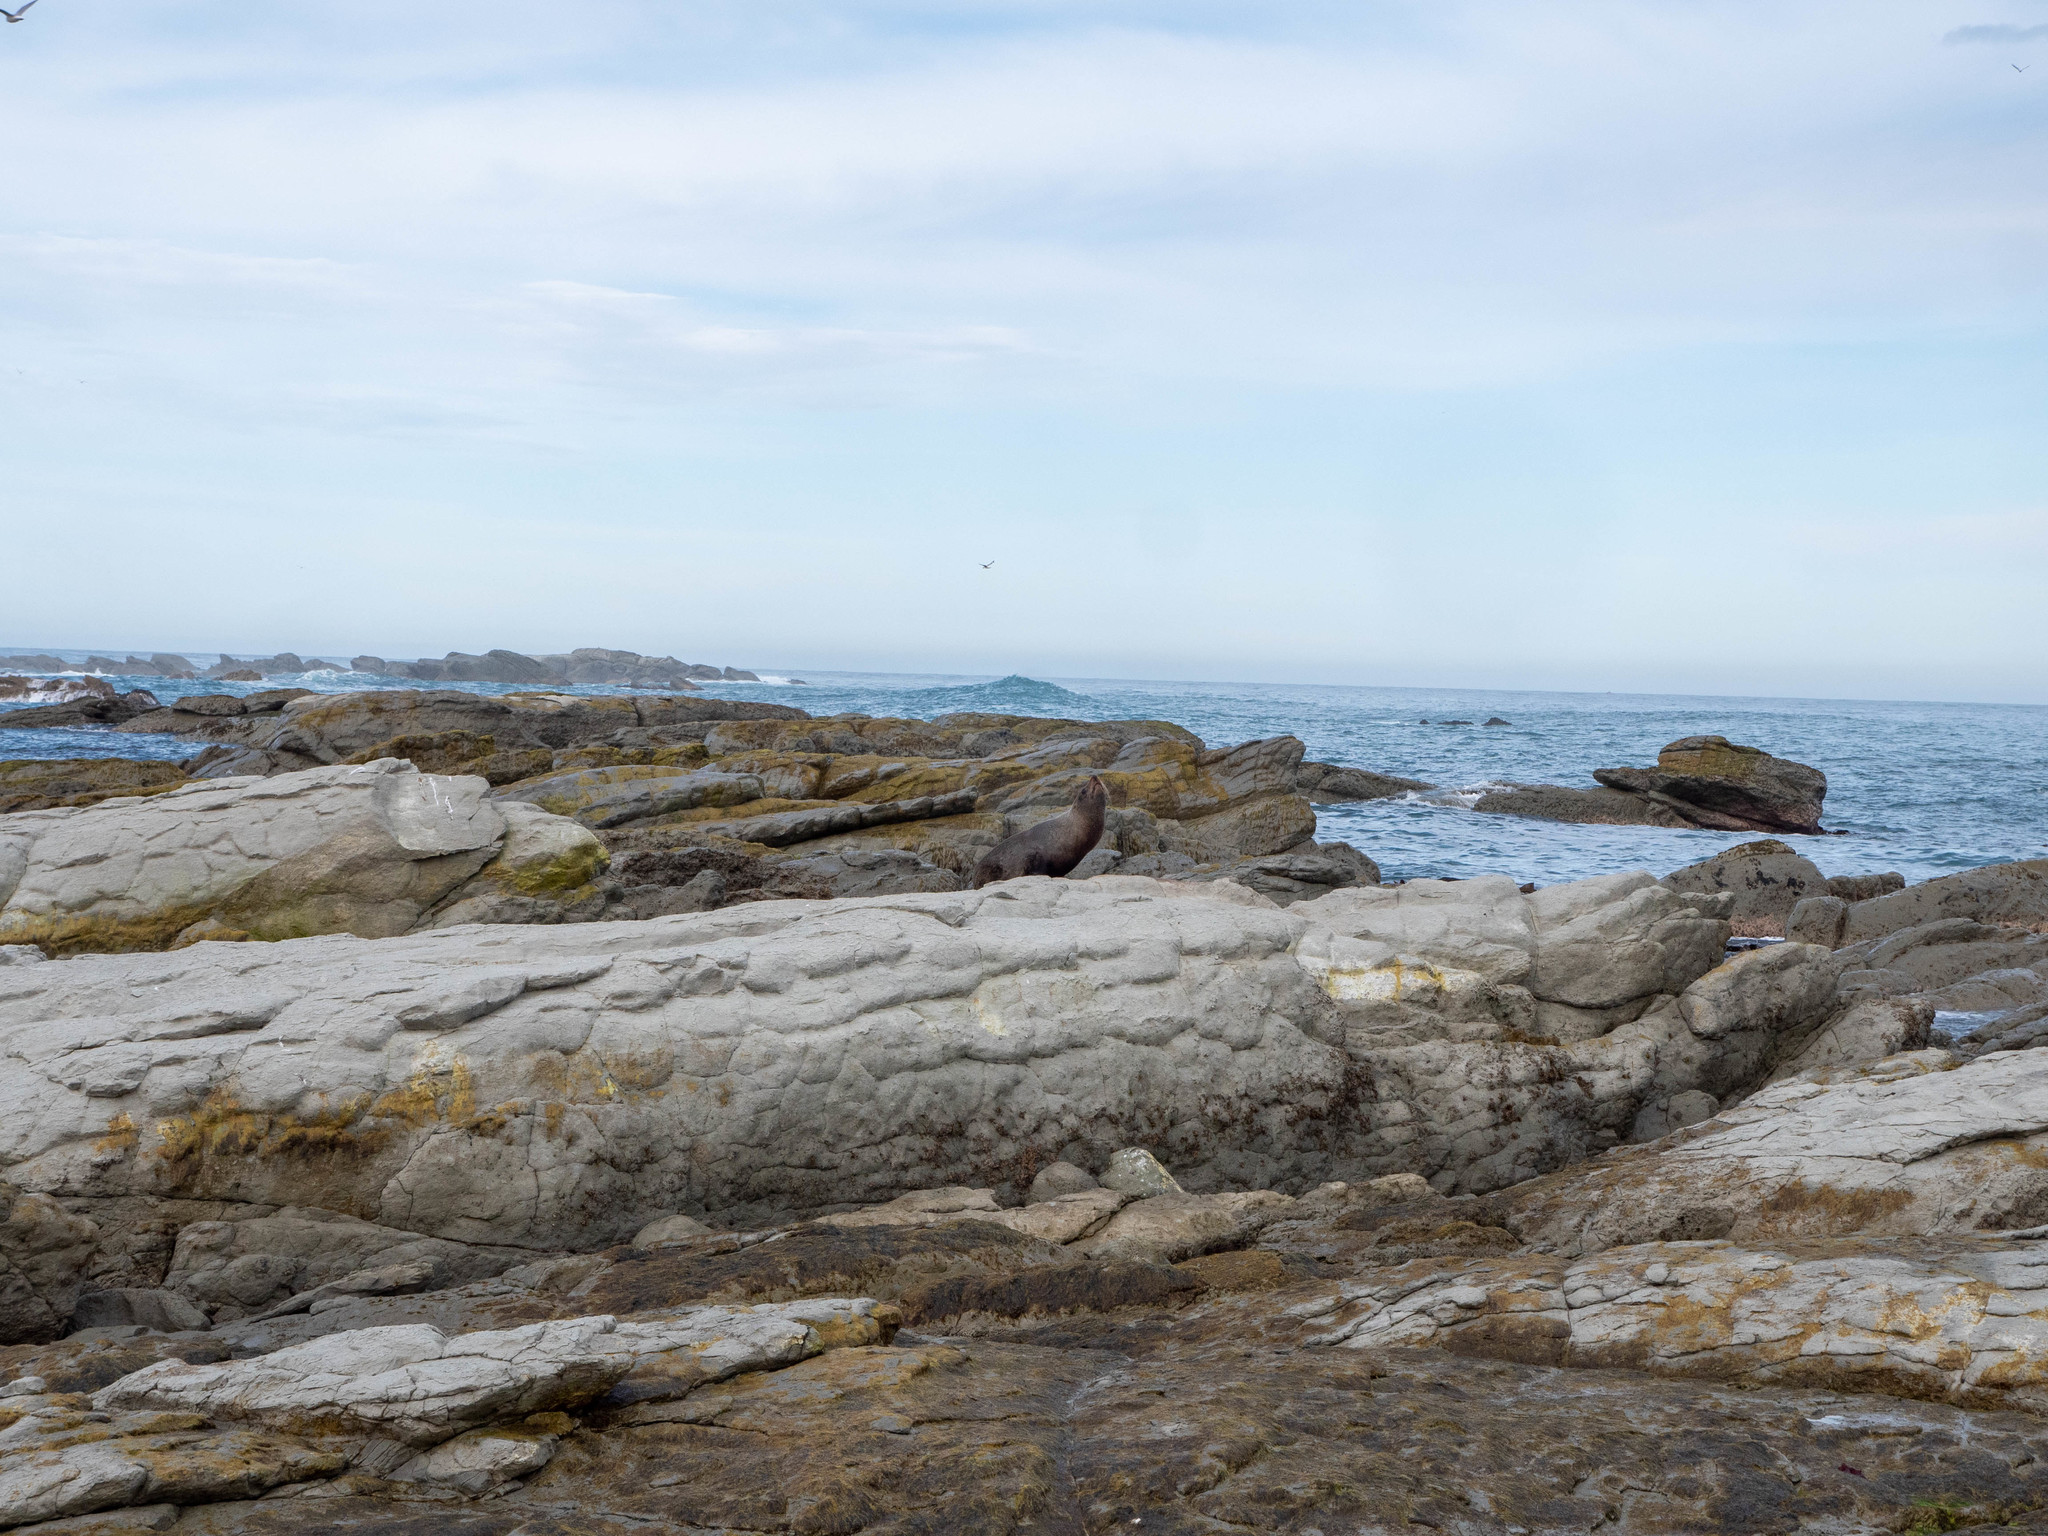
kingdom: Animalia
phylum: Chordata
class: Mammalia
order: Carnivora
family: Otariidae
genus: Arctocephalus
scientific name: Arctocephalus forsteri
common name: New zealand fur seal
